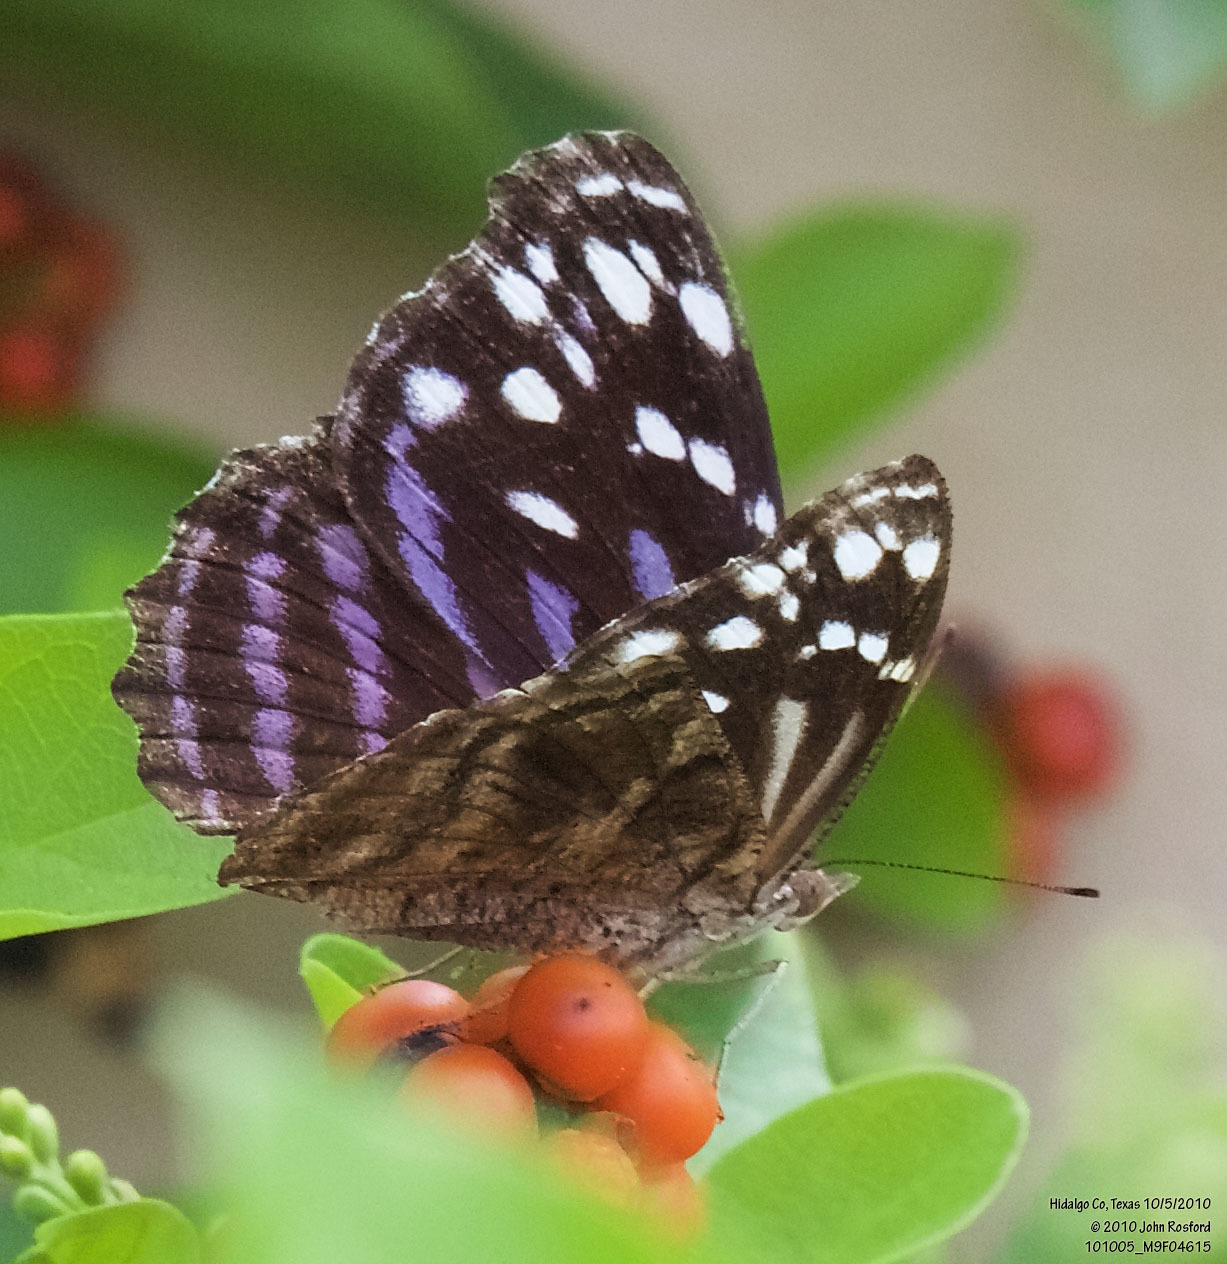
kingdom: Animalia
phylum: Arthropoda
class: Insecta
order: Lepidoptera
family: Nymphalidae
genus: Myscelia
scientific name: Myscelia ethusa
